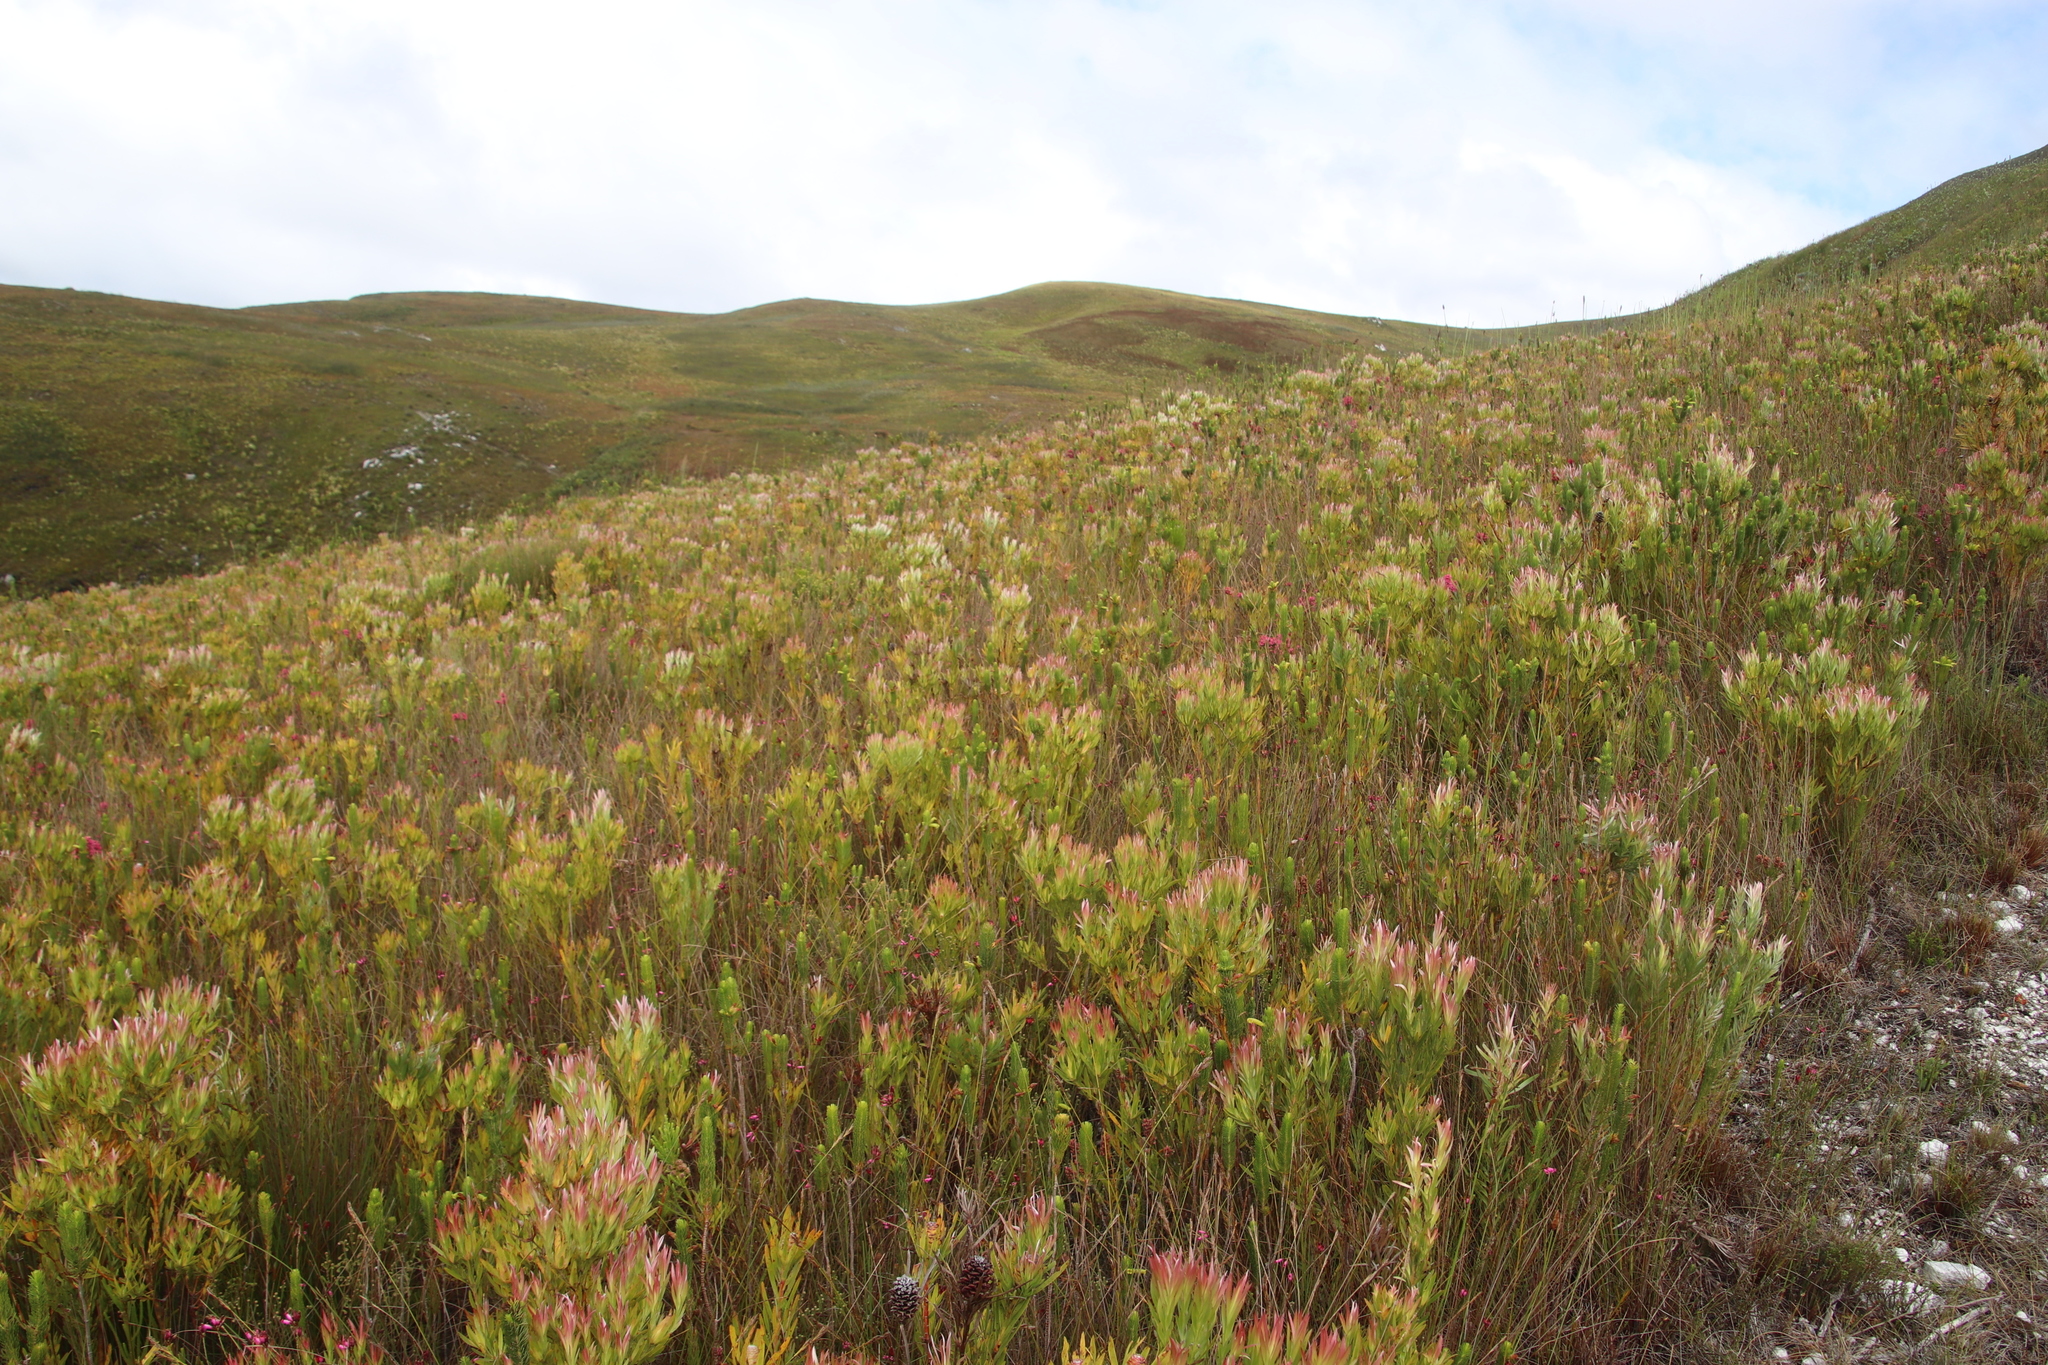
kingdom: Plantae
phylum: Tracheophyta
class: Magnoliopsida
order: Proteales
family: Proteaceae
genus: Leucadendron
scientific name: Leucadendron xanthoconus
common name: Sickle-leaf conebush
